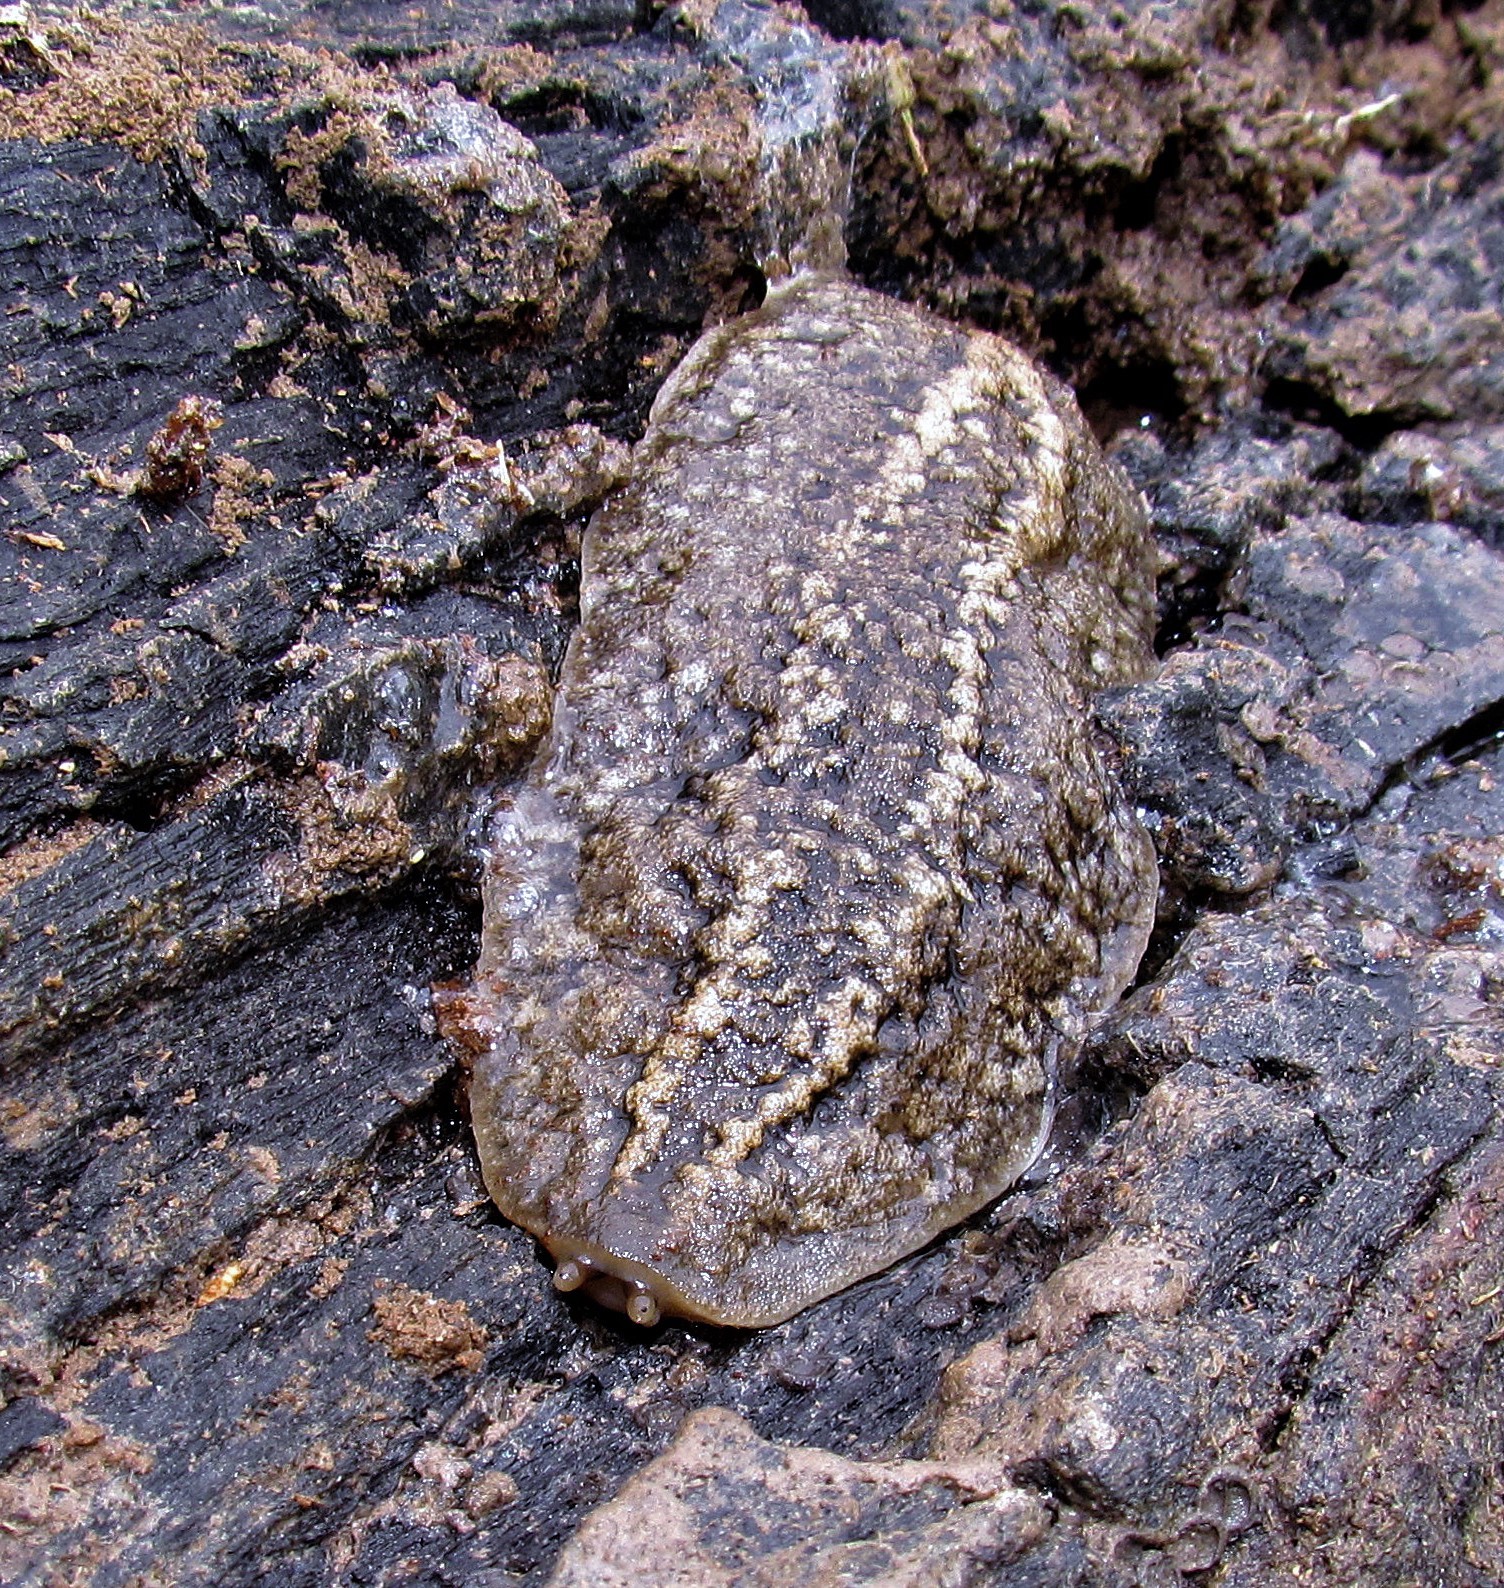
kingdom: Animalia
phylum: Mollusca
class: Gastropoda
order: Systellommatophora
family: Veronicellidae
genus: Phyllocaulis
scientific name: Phyllocaulis soleiformis
